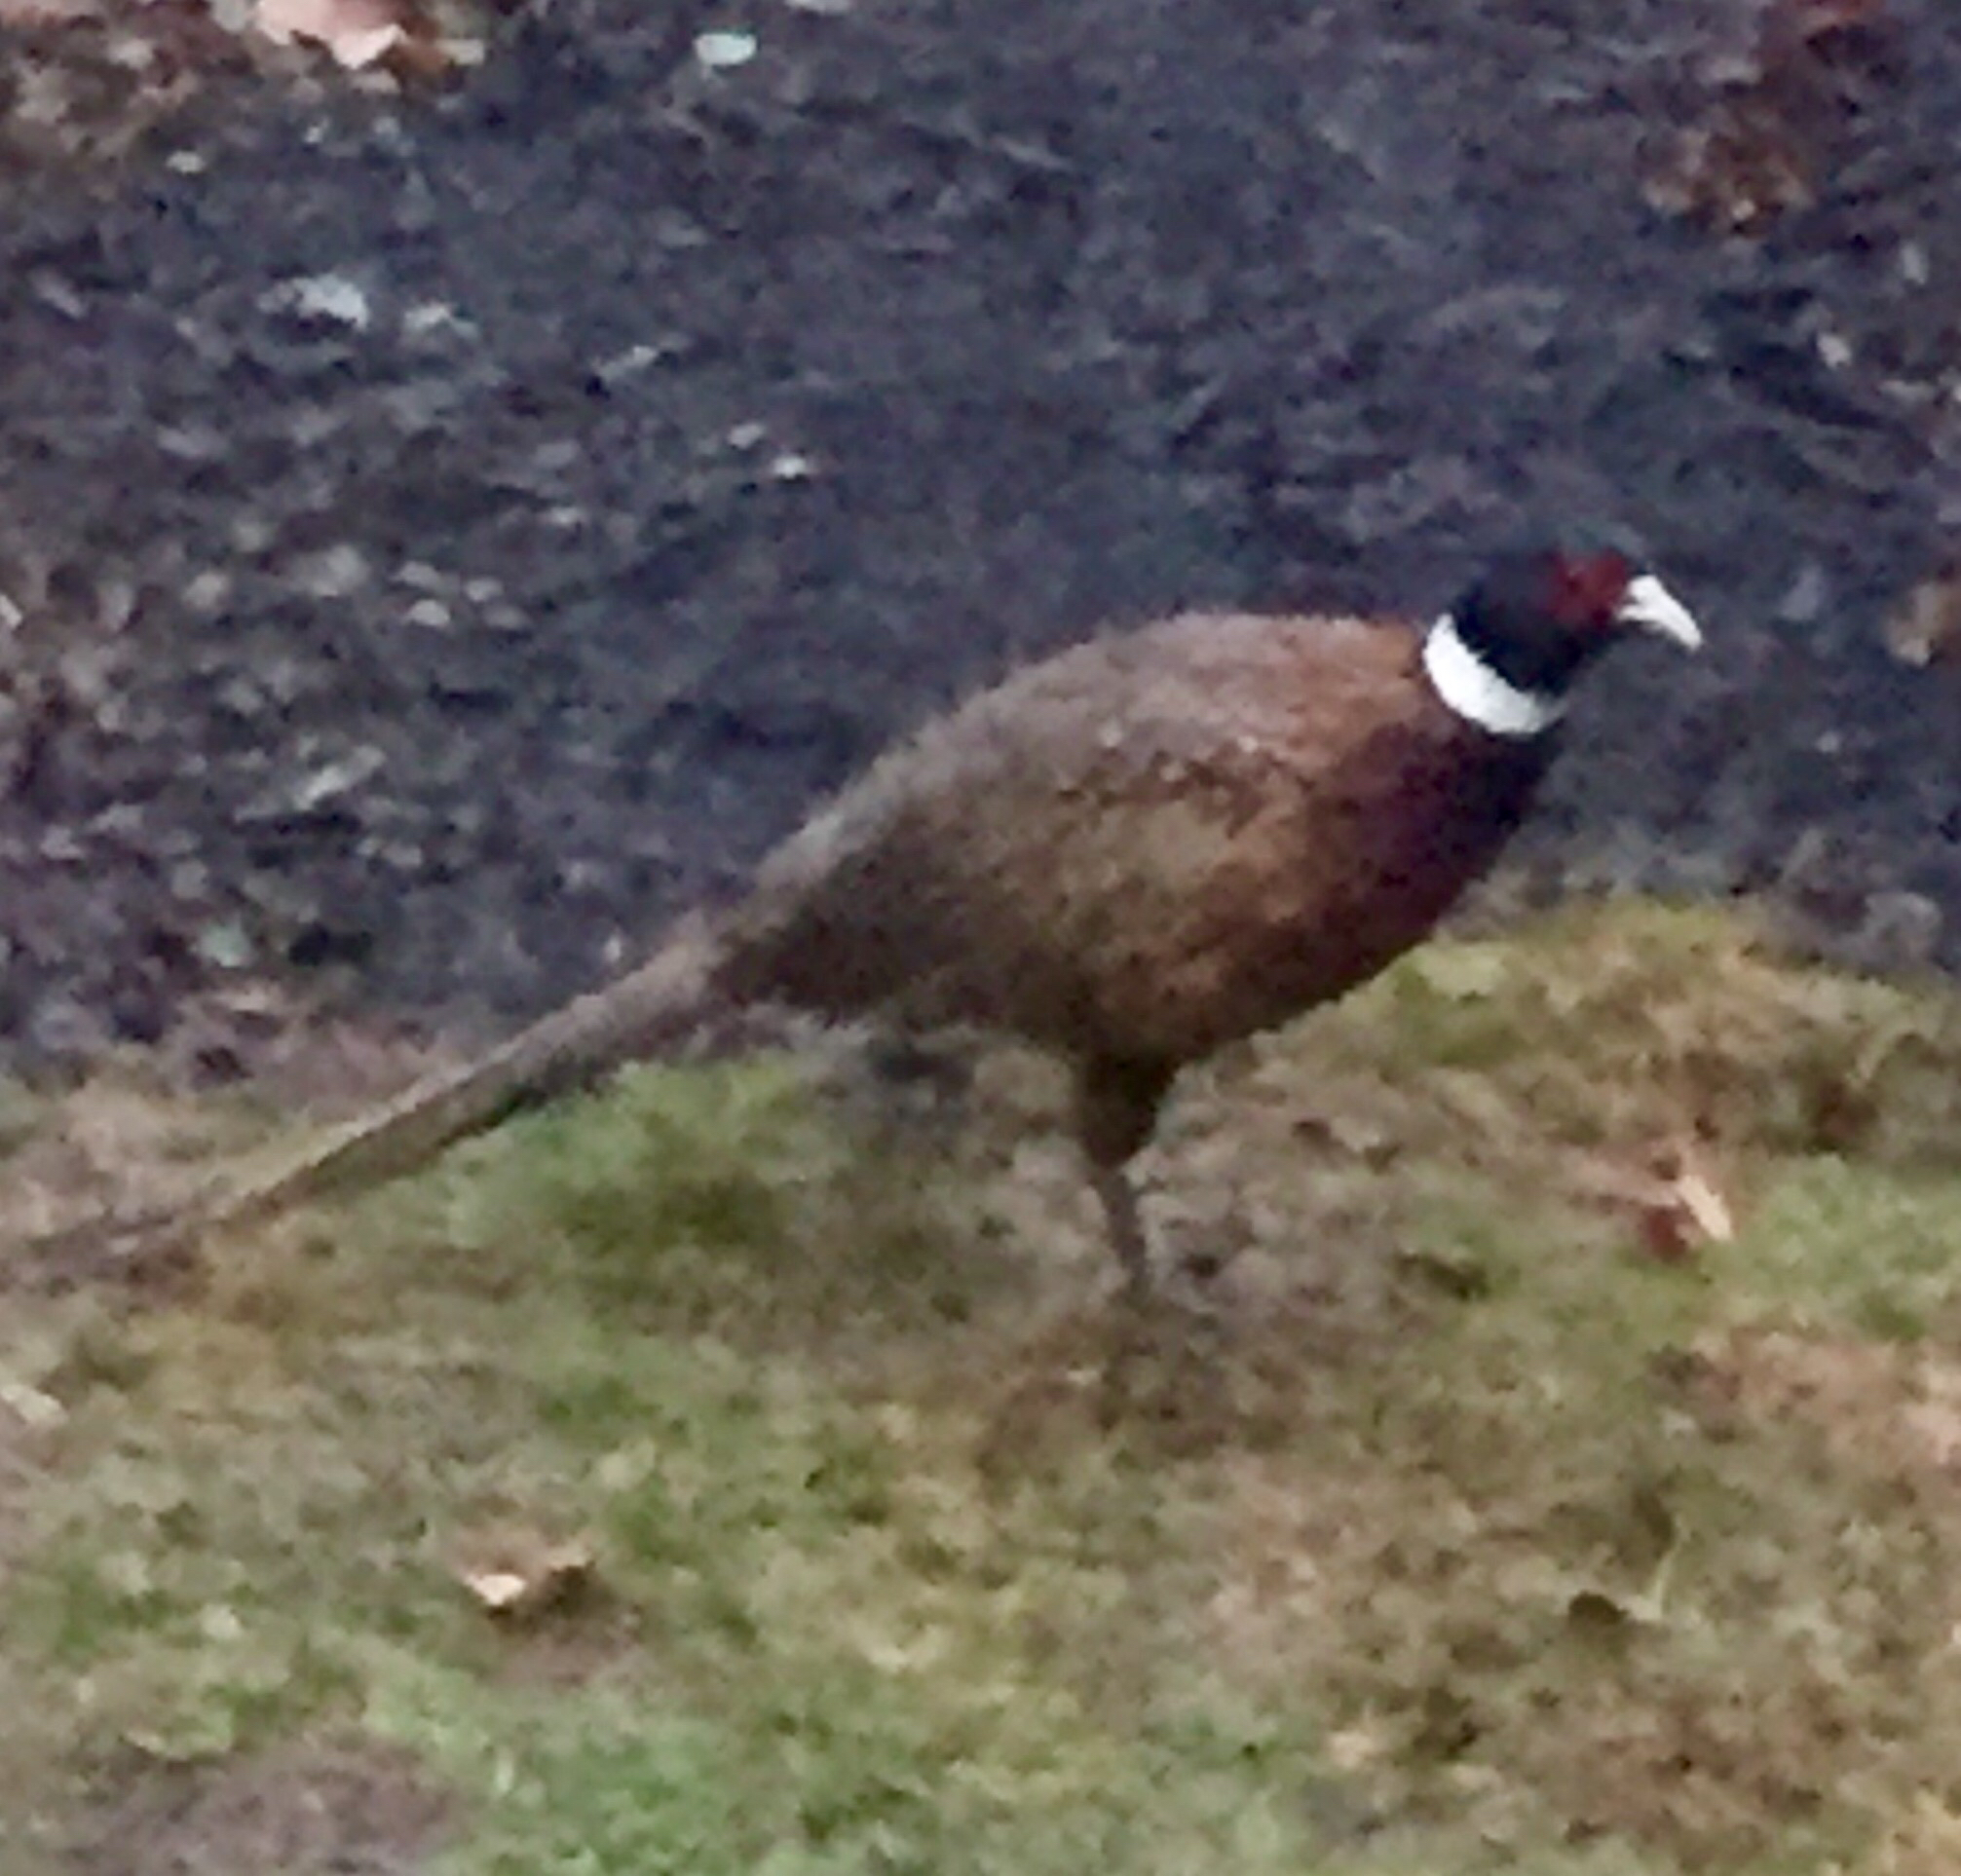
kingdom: Animalia
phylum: Chordata
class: Aves
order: Galliformes
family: Phasianidae
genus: Phasianus
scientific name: Phasianus colchicus
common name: Common pheasant
